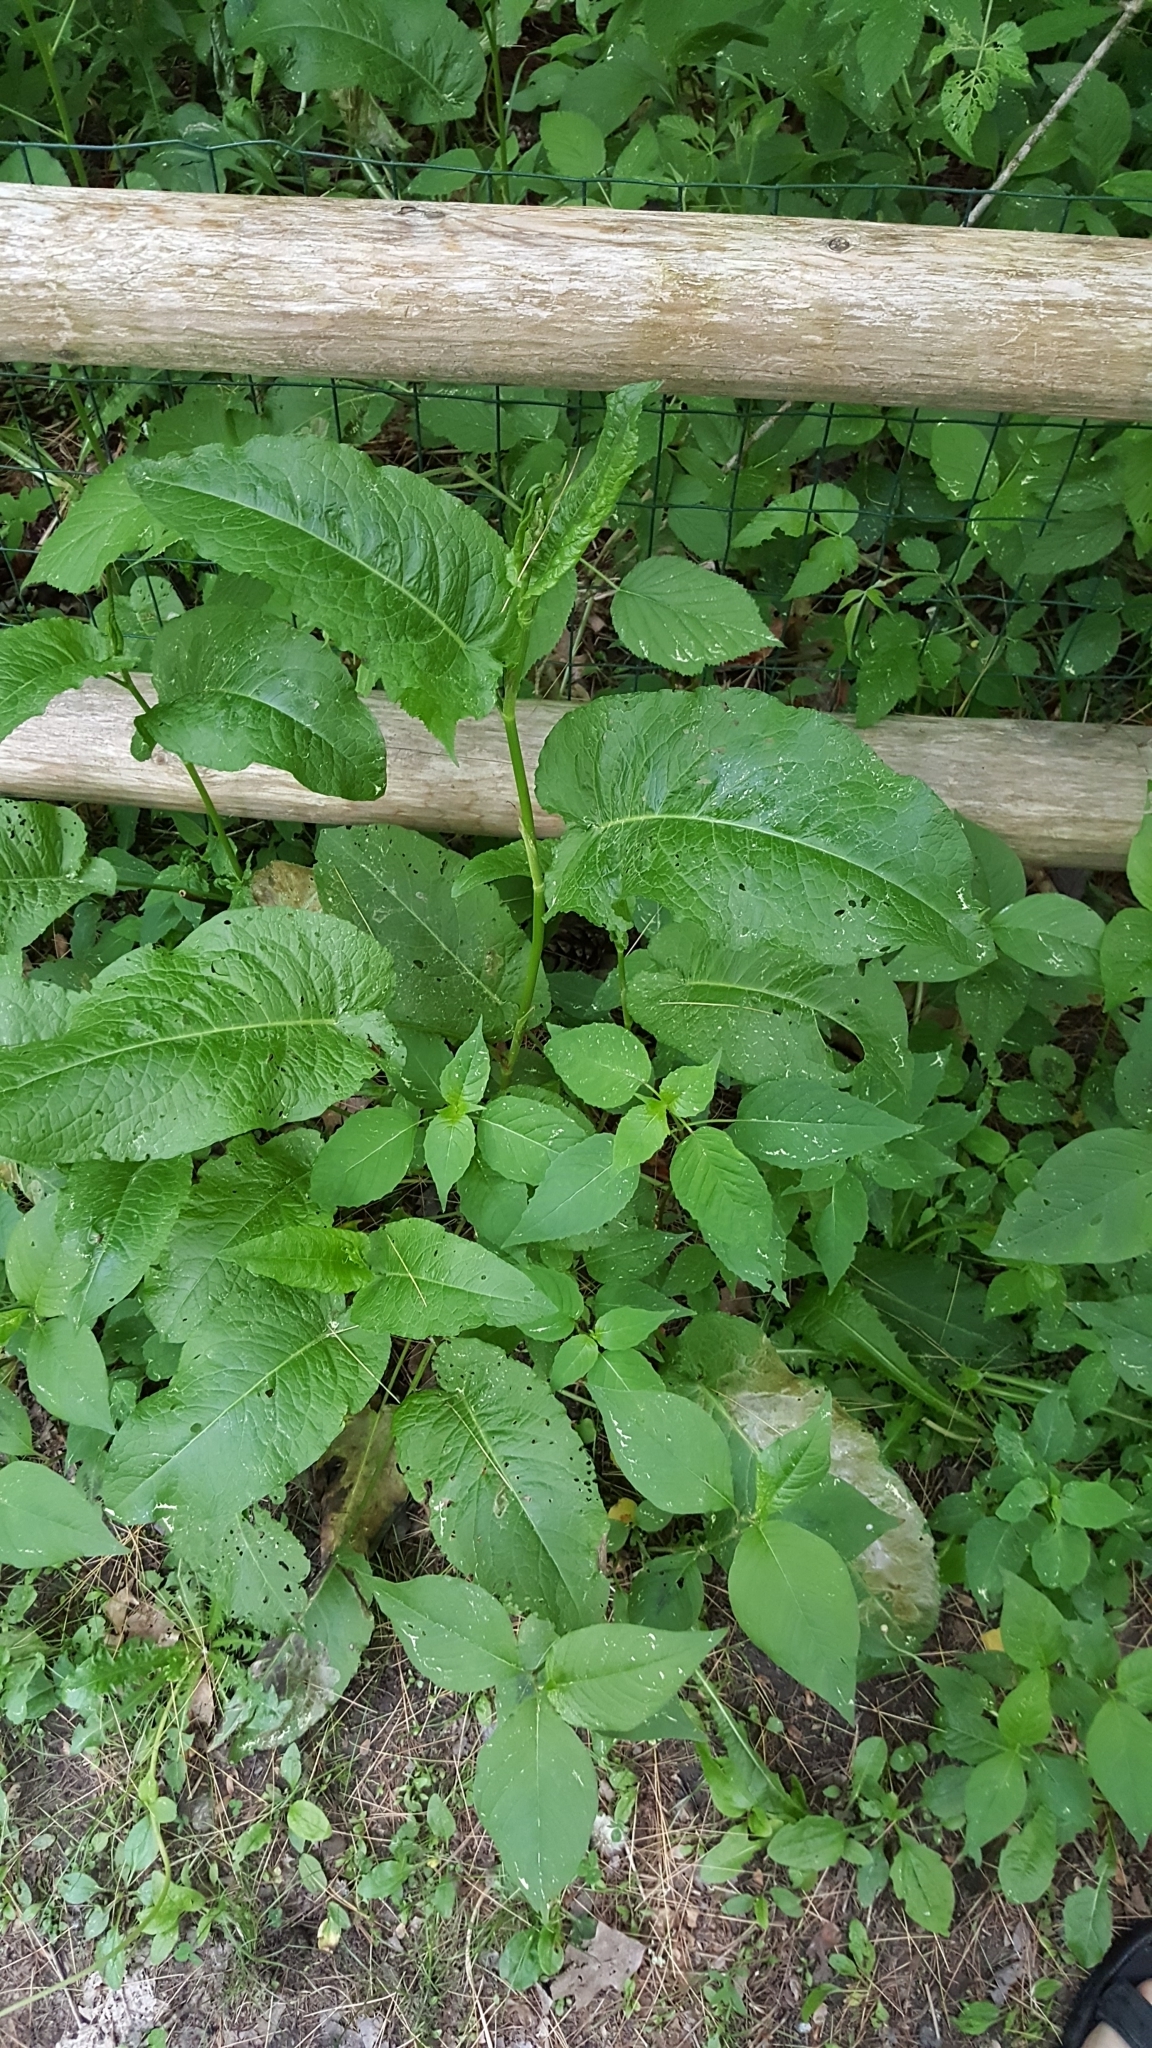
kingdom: Plantae
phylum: Tracheophyta
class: Magnoliopsida
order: Caryophyllales
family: Polygonaceae
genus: Rumex
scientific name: Rumex obtusifolius
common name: Bitter dock
